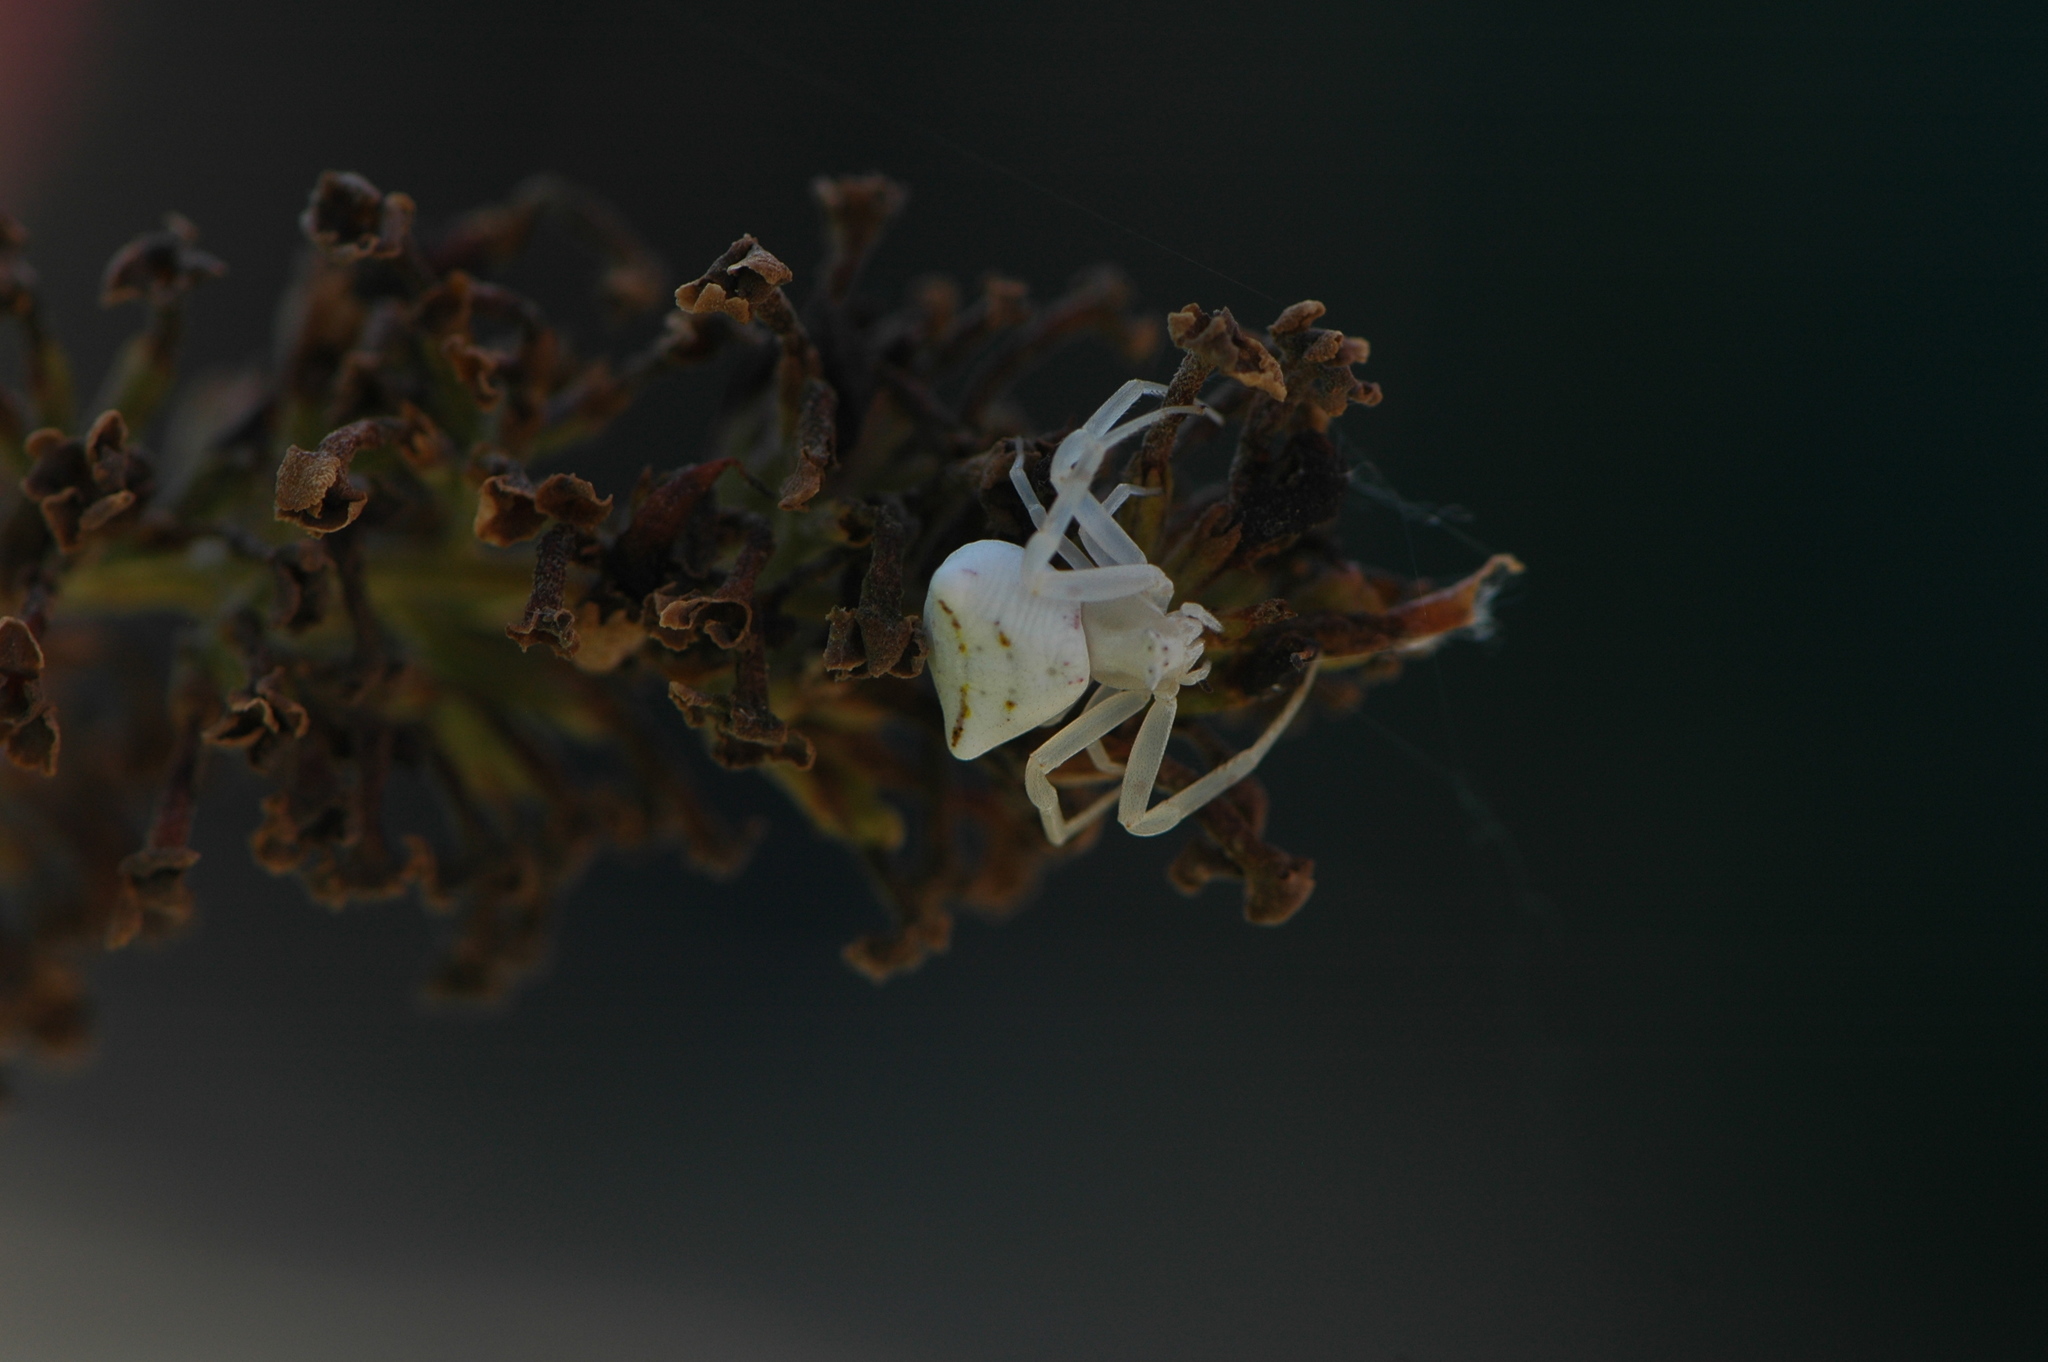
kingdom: Animalia
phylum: Arthropoda
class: Arachnida
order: Araneae
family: Thomisidae
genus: Thomisus
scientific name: Thomisus onustus
